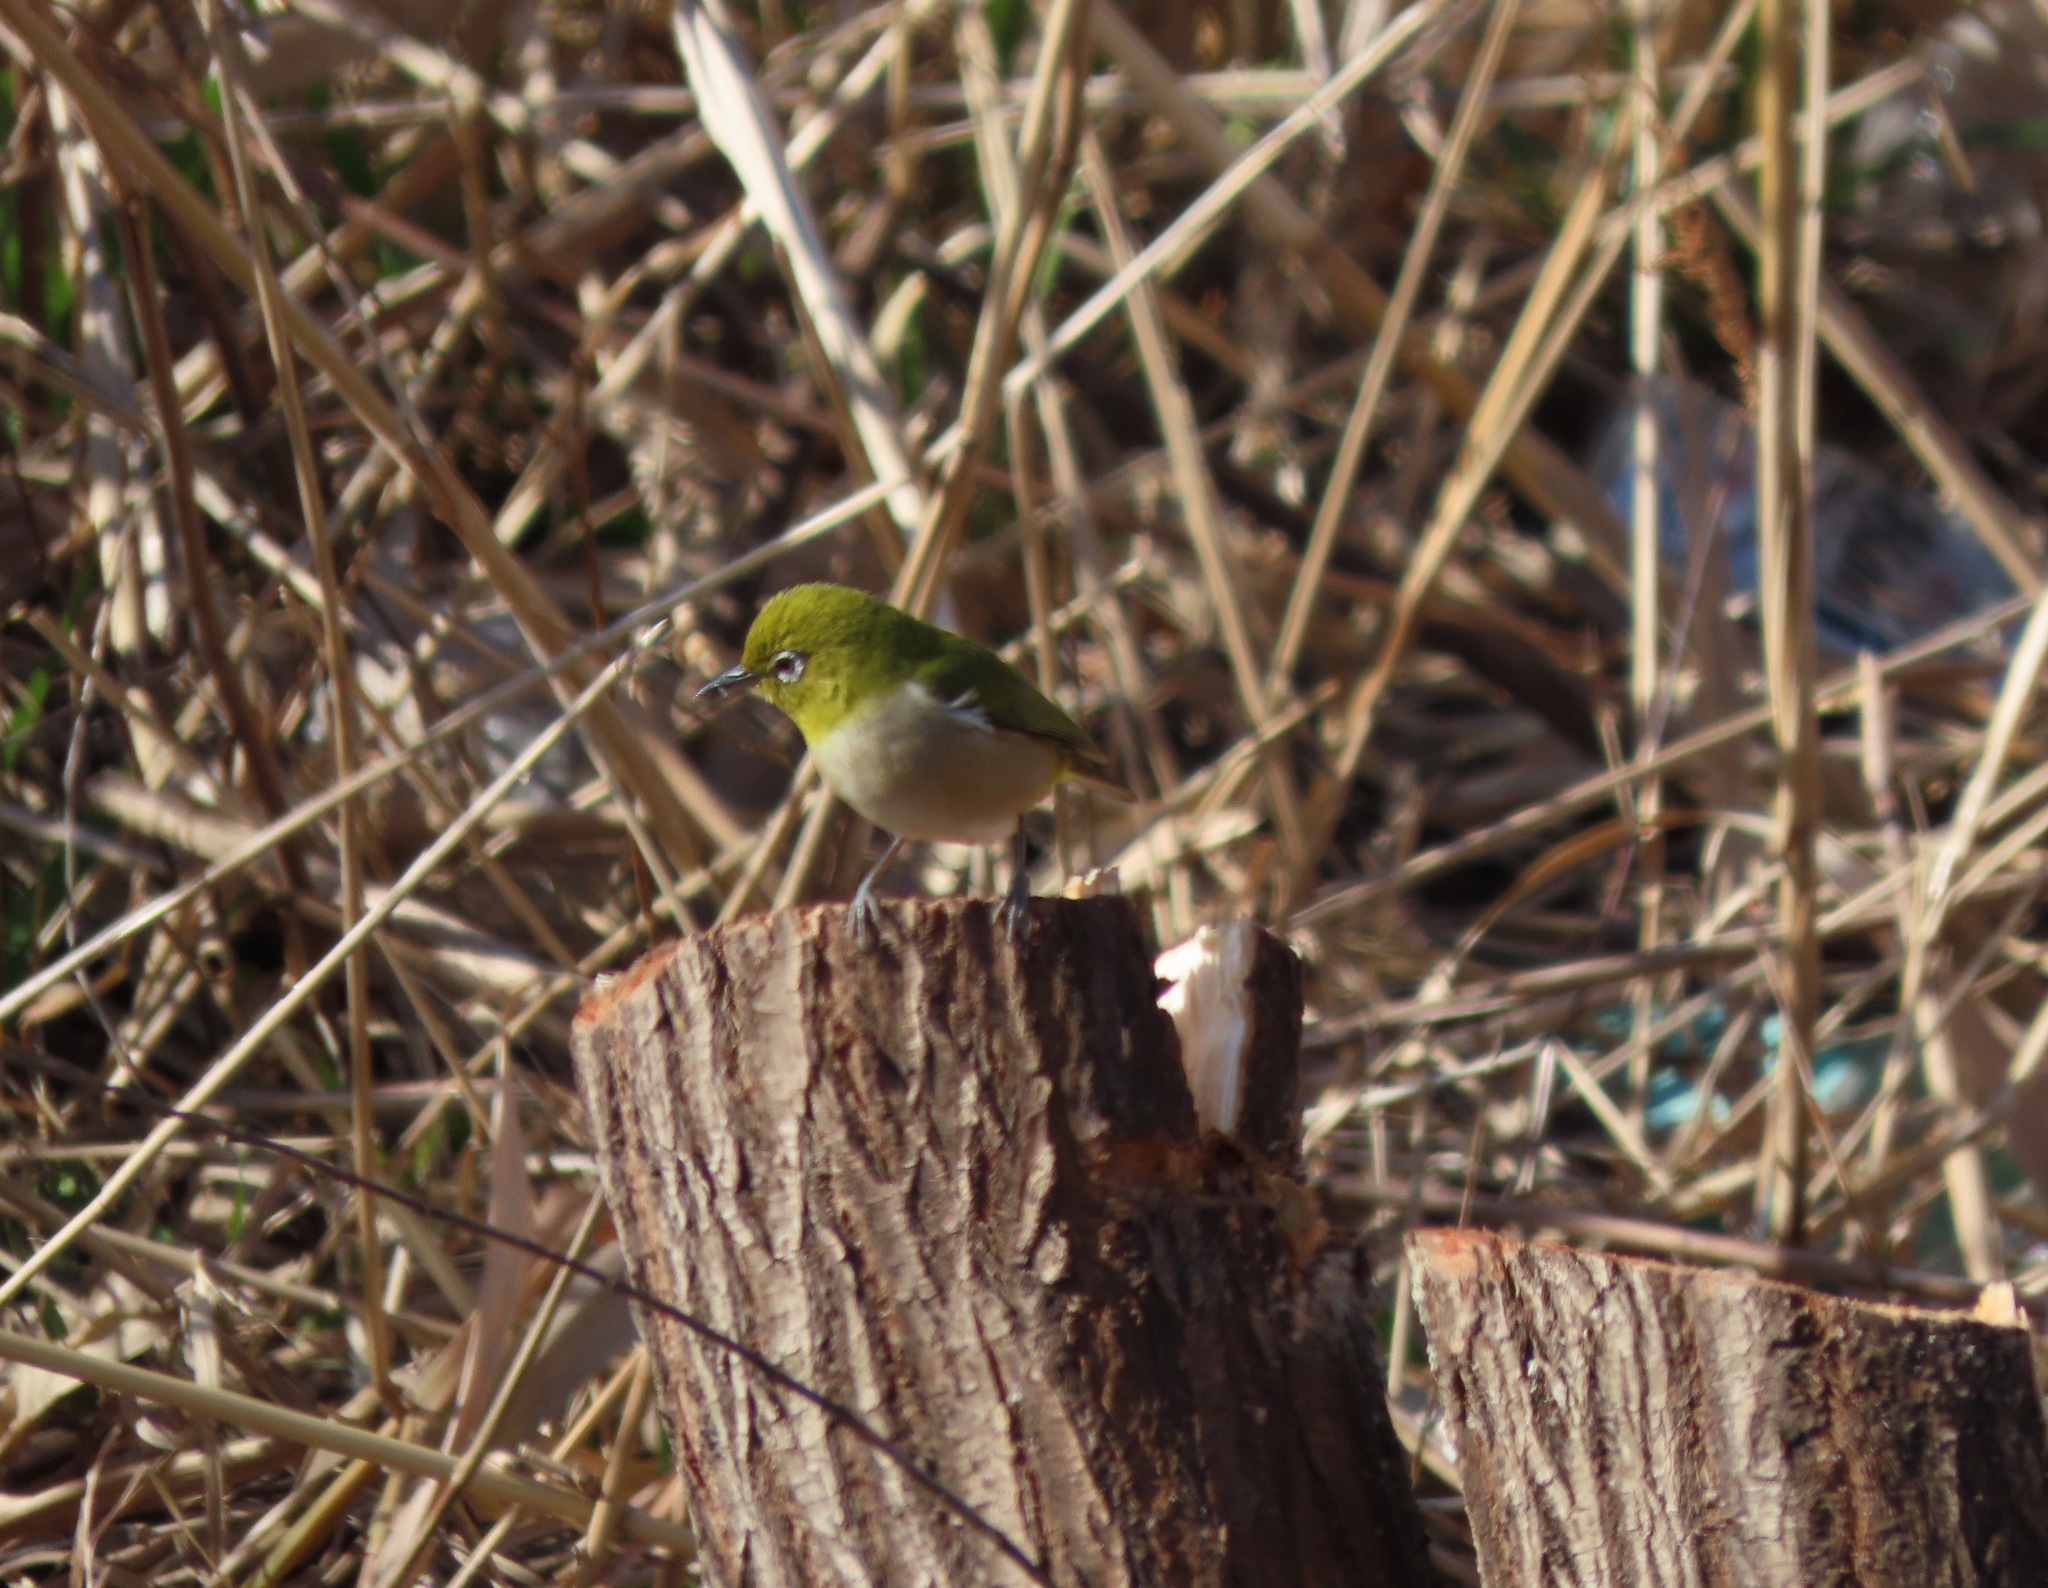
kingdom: Animalia
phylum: Chordata
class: Aves
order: Passeriformes
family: Zosteropidae
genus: Zosterops
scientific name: Zosterops japonicus
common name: Japanese white-eye
